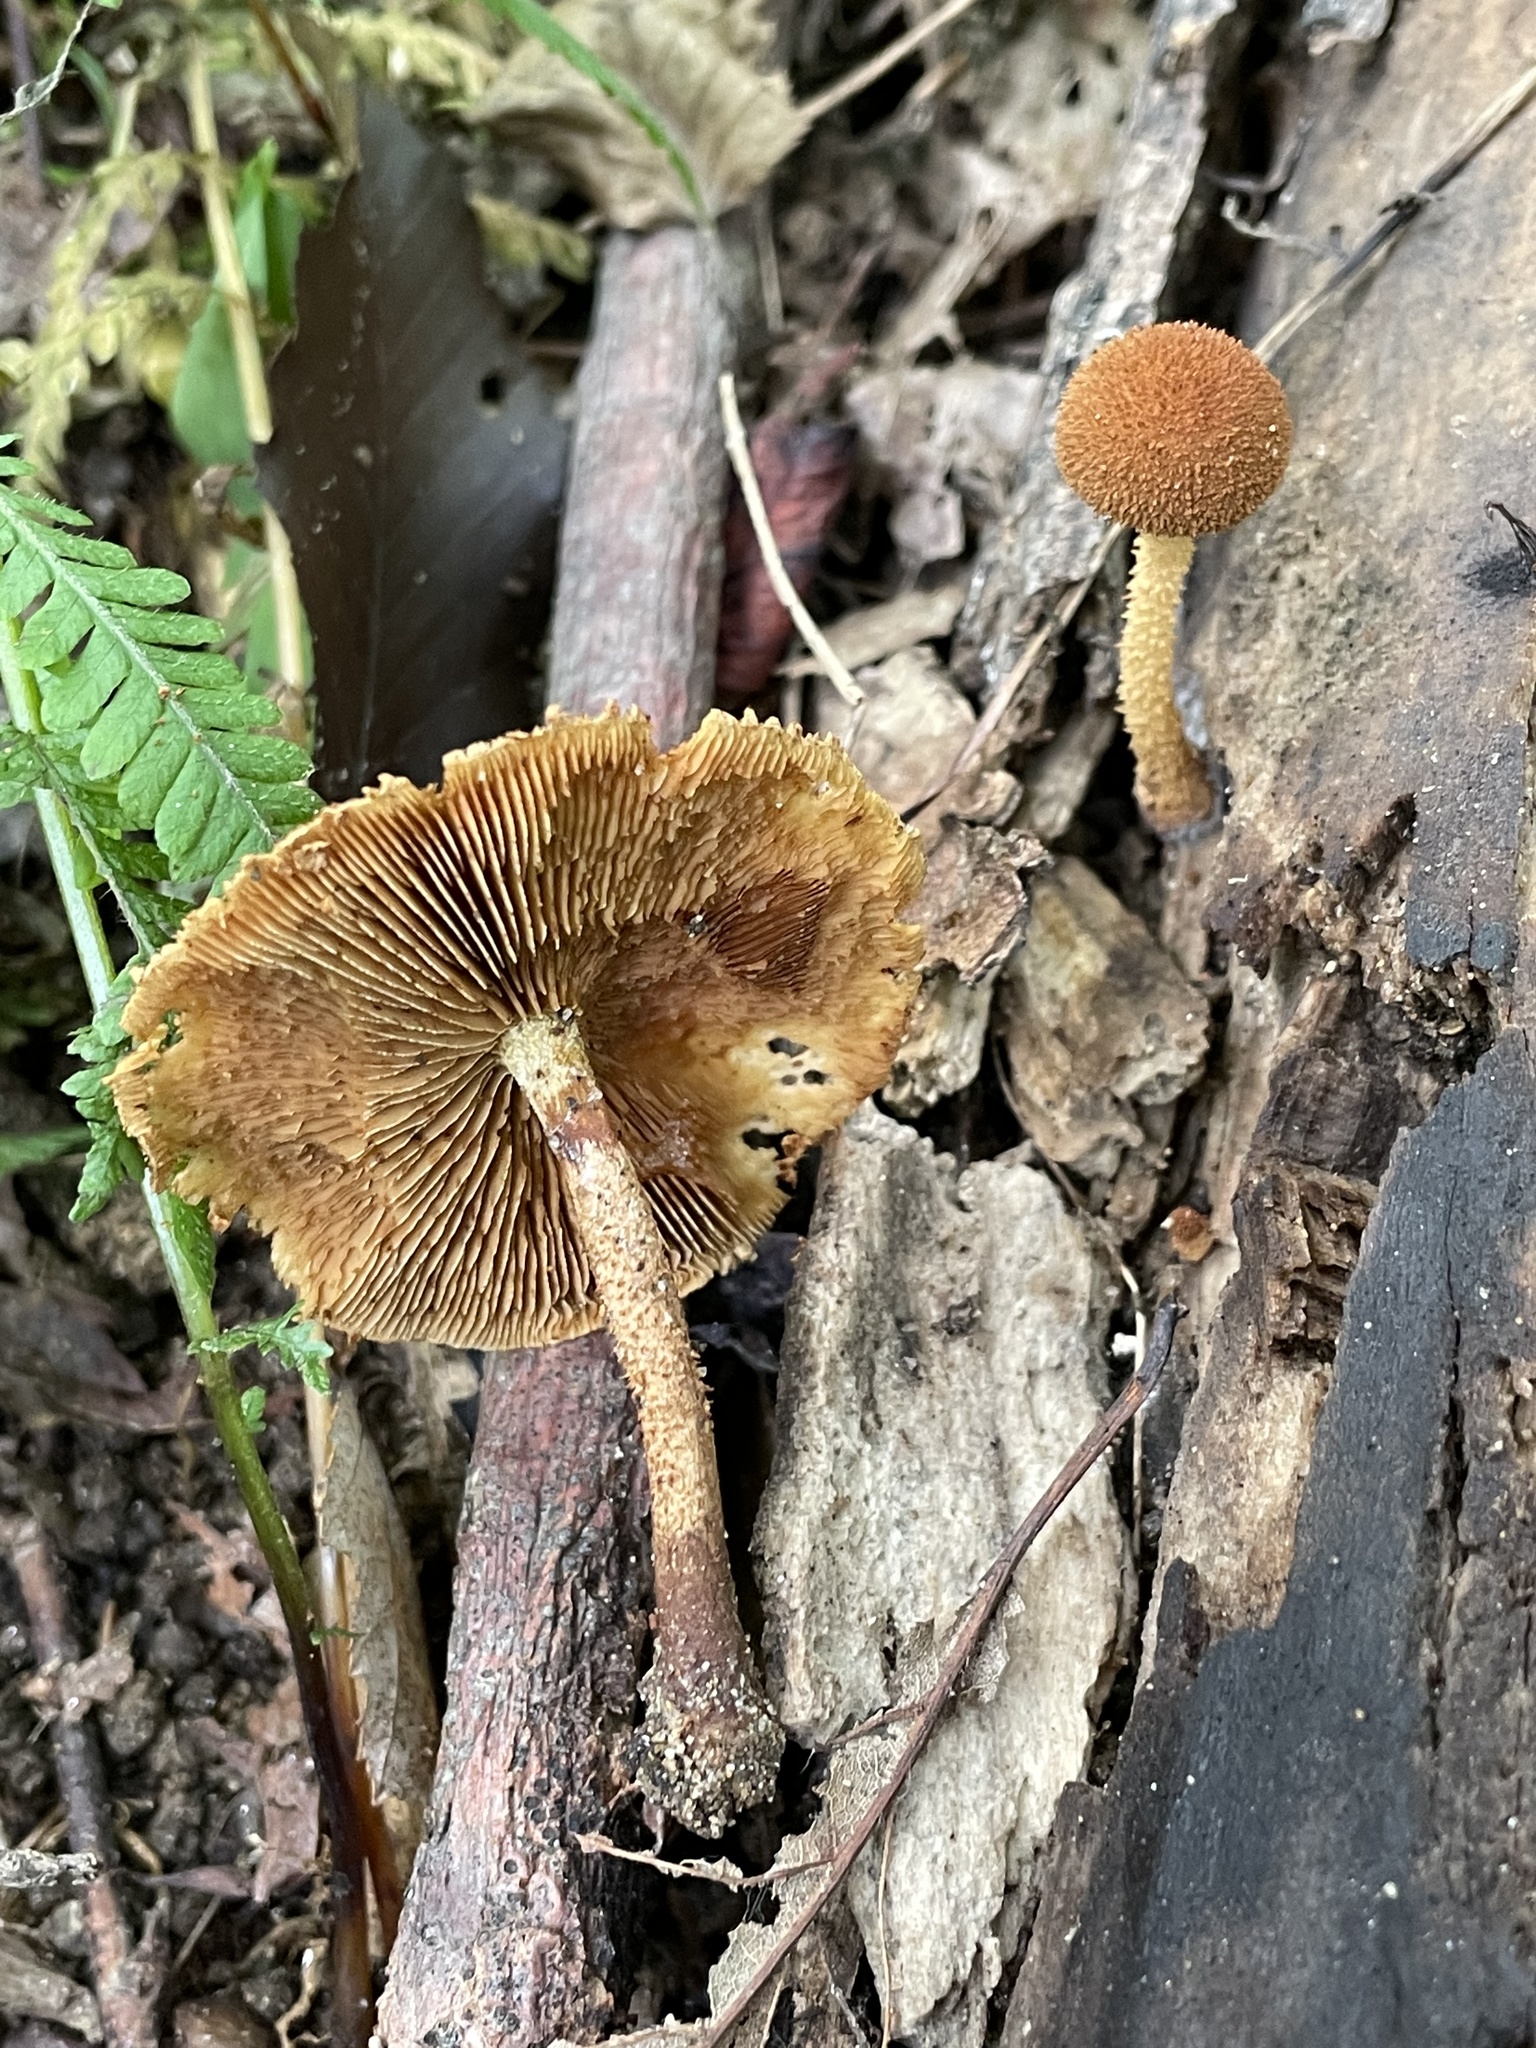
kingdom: Fungi
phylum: Basidiomycota
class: Agaricomycetes
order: Agaricales
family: Tubariaceae
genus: Flammulaster
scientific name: Flammulaster erinaceellus
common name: Powder-scale pholiota
